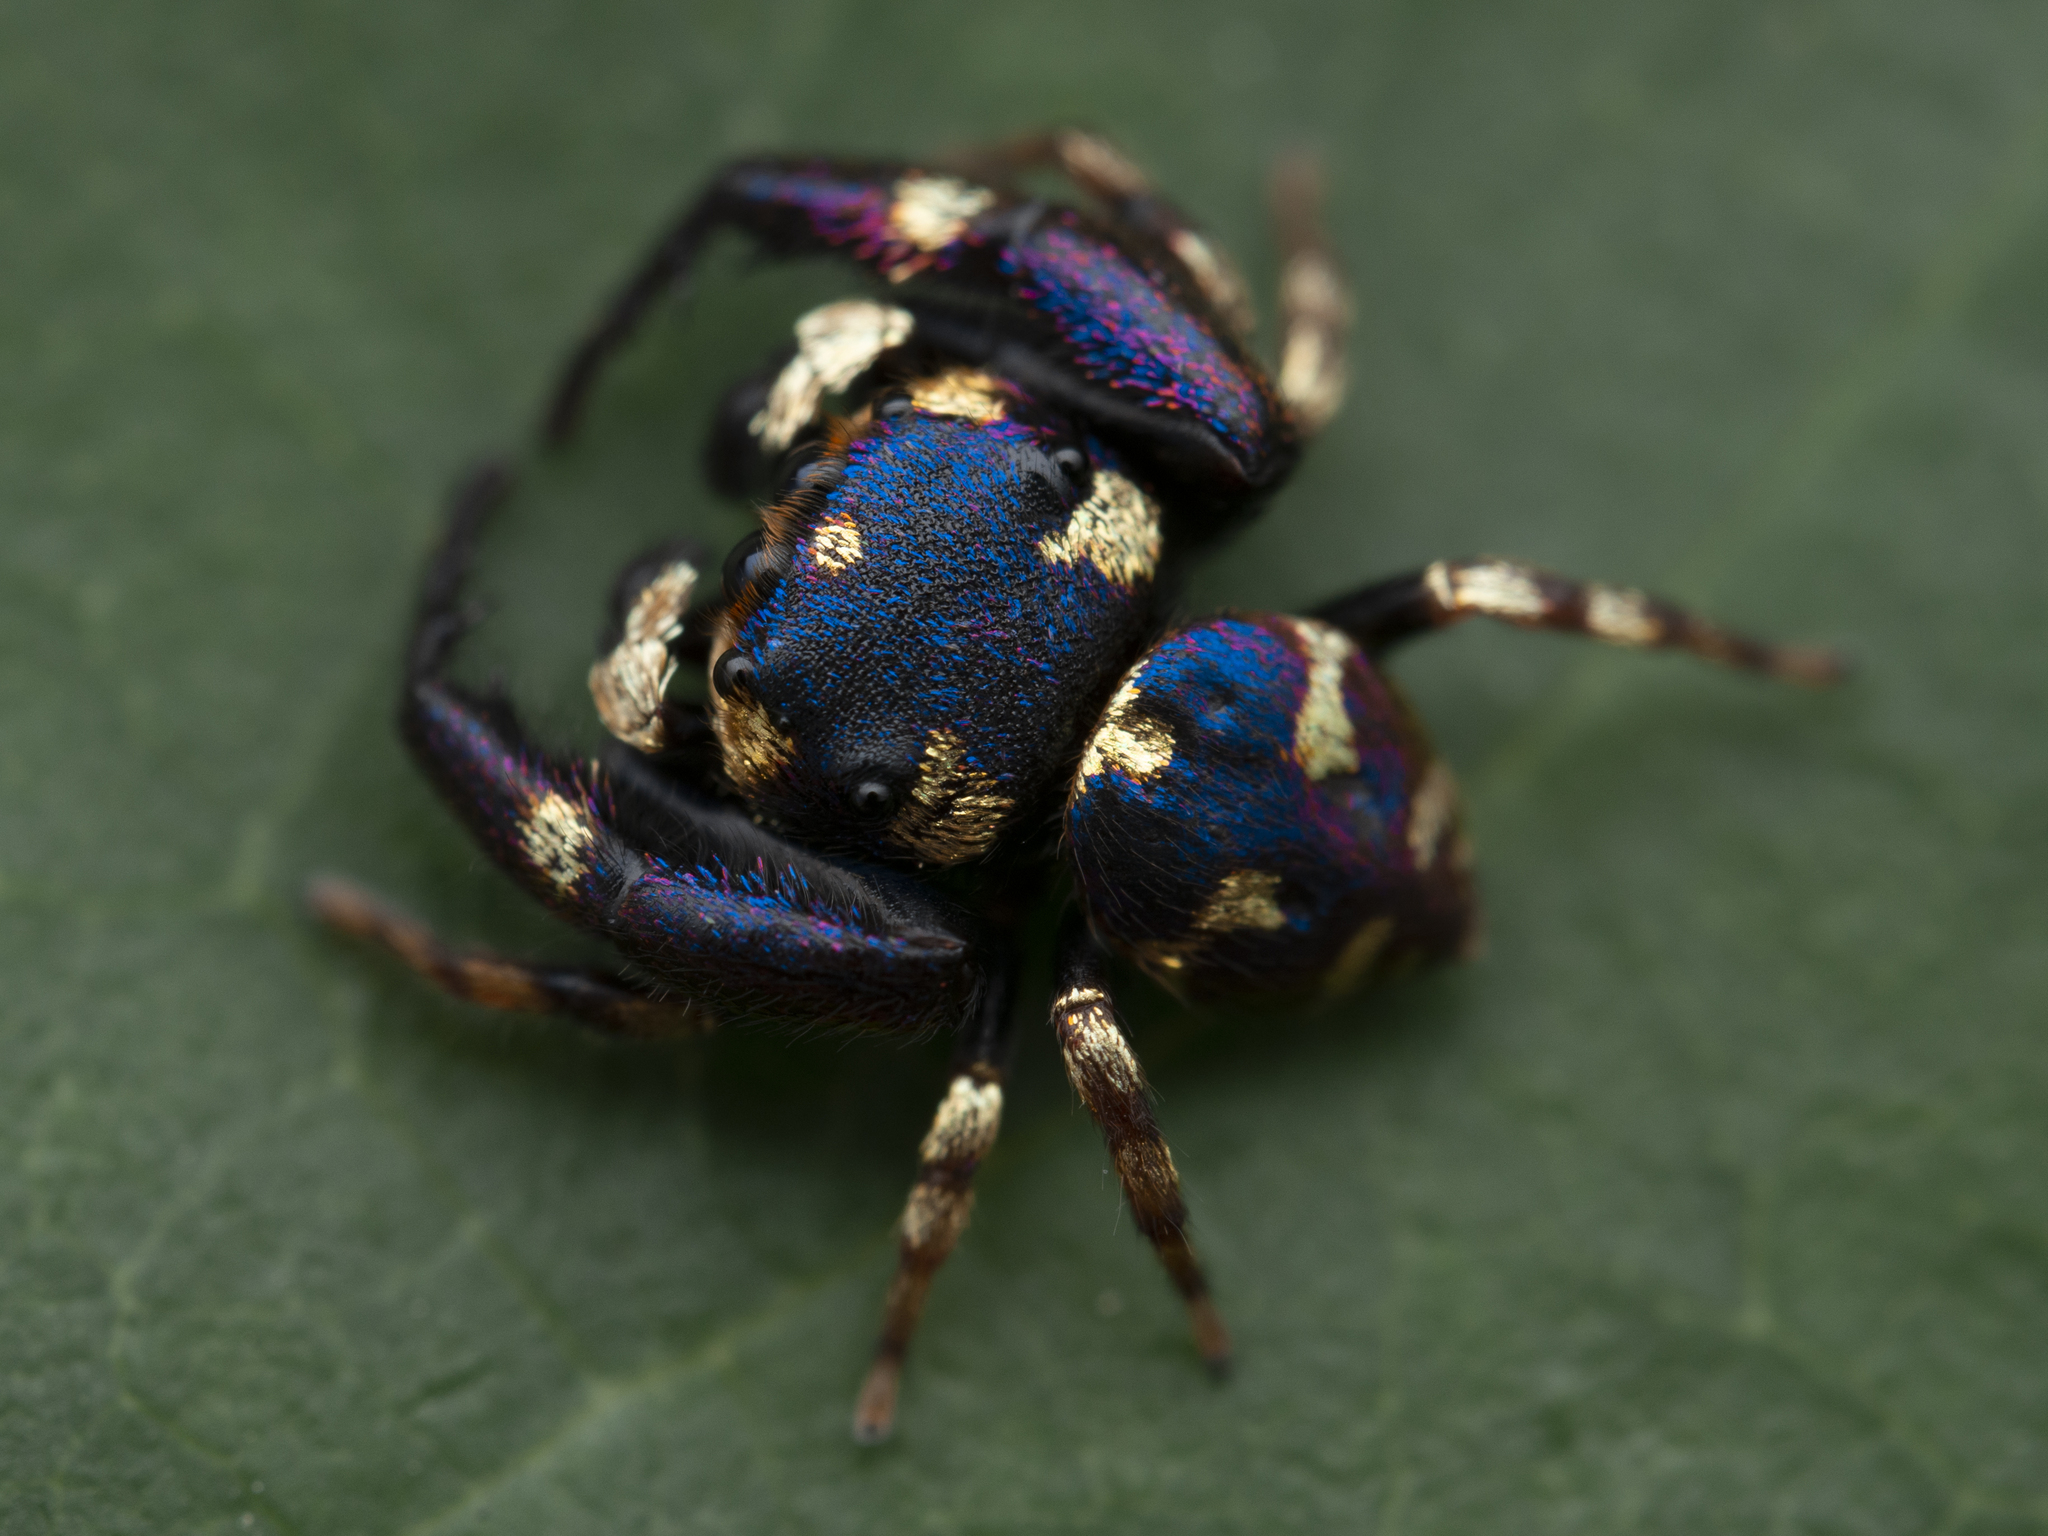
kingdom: Animalia
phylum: Arthropoda
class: Arachnida
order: Araneae
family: Salticidae
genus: Irura
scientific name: Irura bidenticulata
